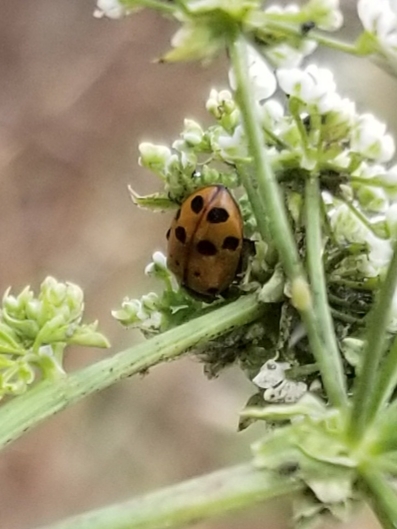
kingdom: Animalia
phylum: Arthropoda
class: Insecta
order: Coleoptera
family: Coccinellidae
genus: Hippodamia
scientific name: Hippodamia convergens
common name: Convergent lady beetle
